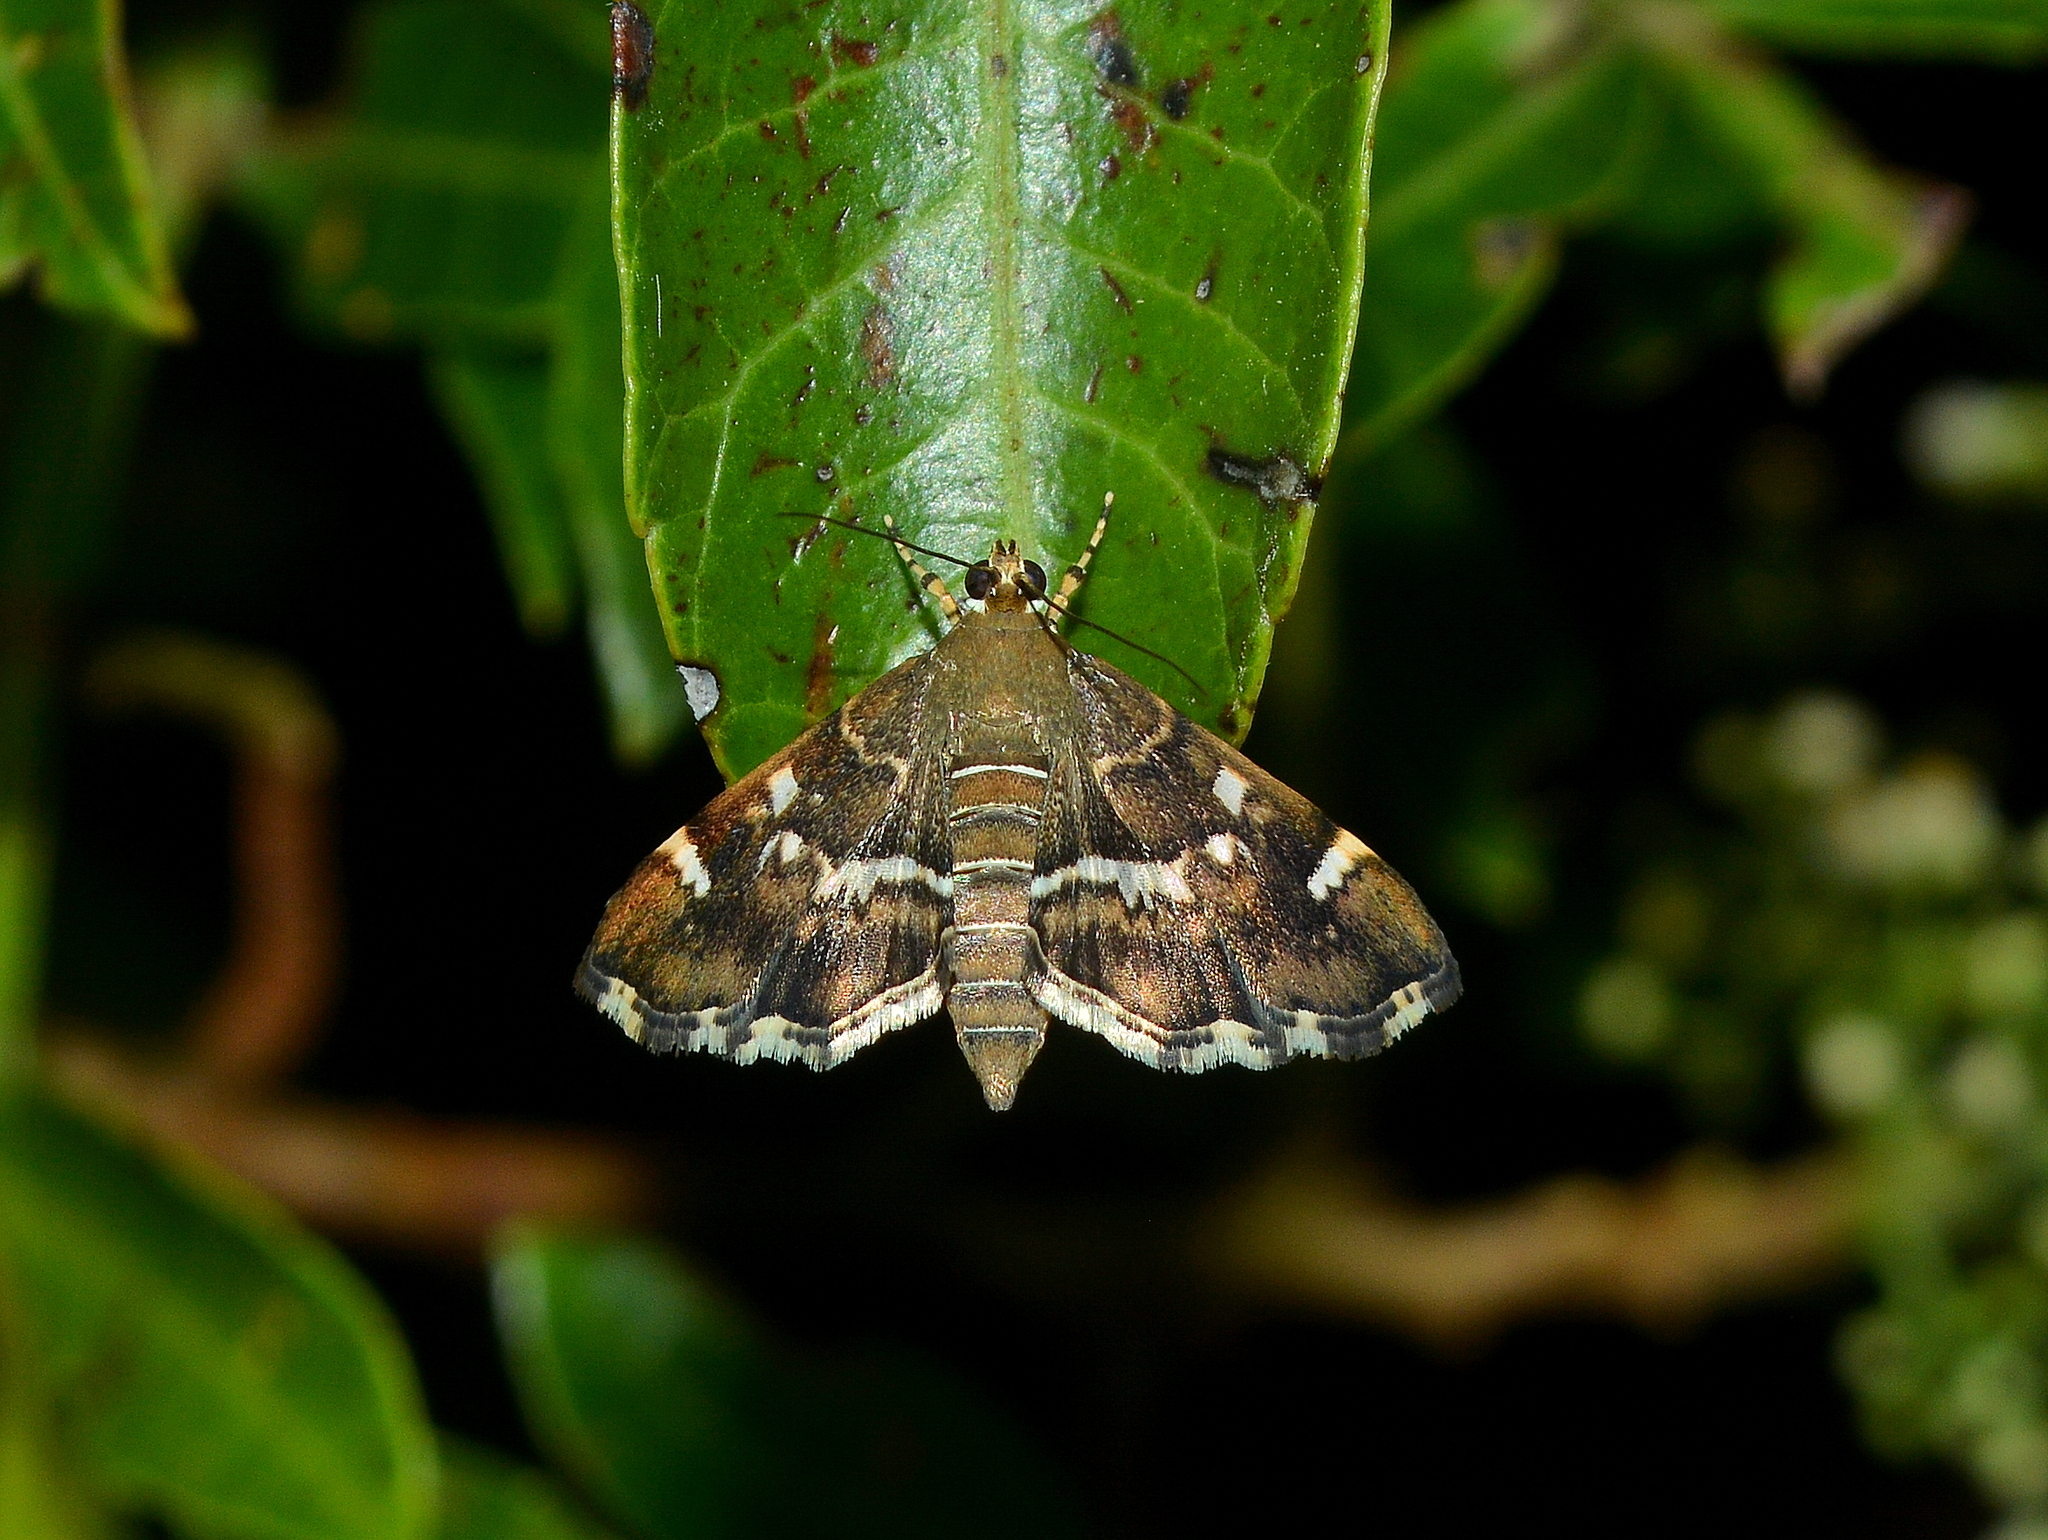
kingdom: Animalia
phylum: Arthropoda
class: Insecta
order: Lepidoptera
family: Crambidae
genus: Hymenia
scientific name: Hymenia perspectalis
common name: Spotted beet webworm
